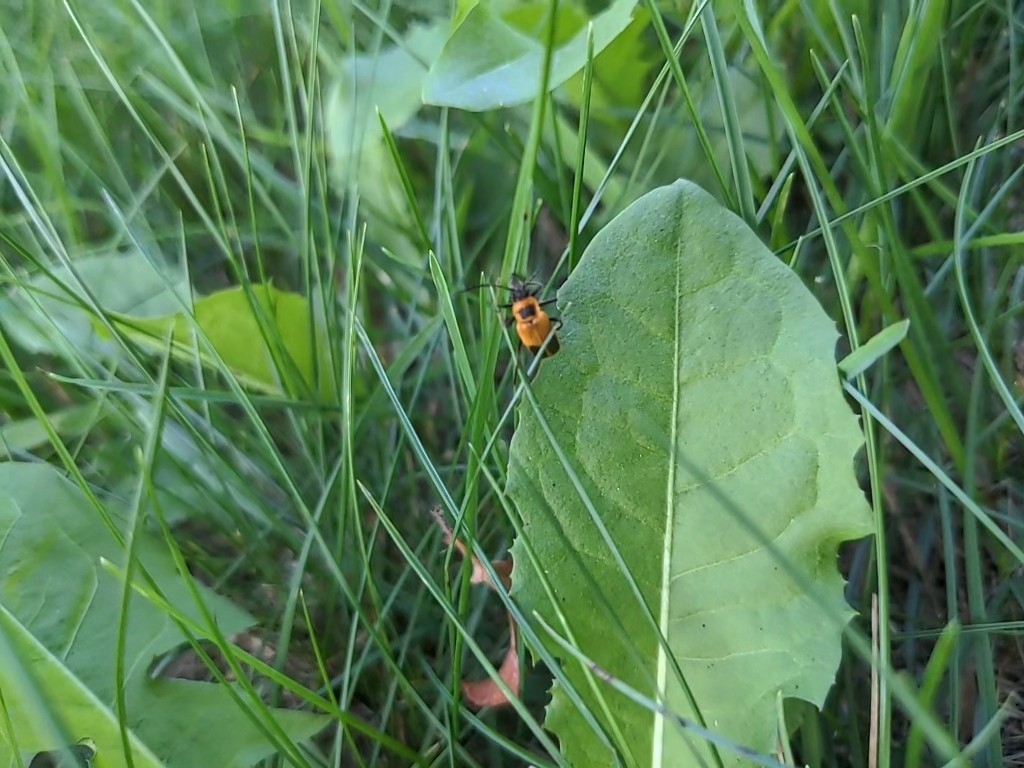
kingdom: Animalia
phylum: Arthropoda
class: Insecta
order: Coleoptera
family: Cantharidae
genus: Chauliognathus
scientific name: Chauliognathus pensylvanicus
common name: Goldenrod soldier beetle
